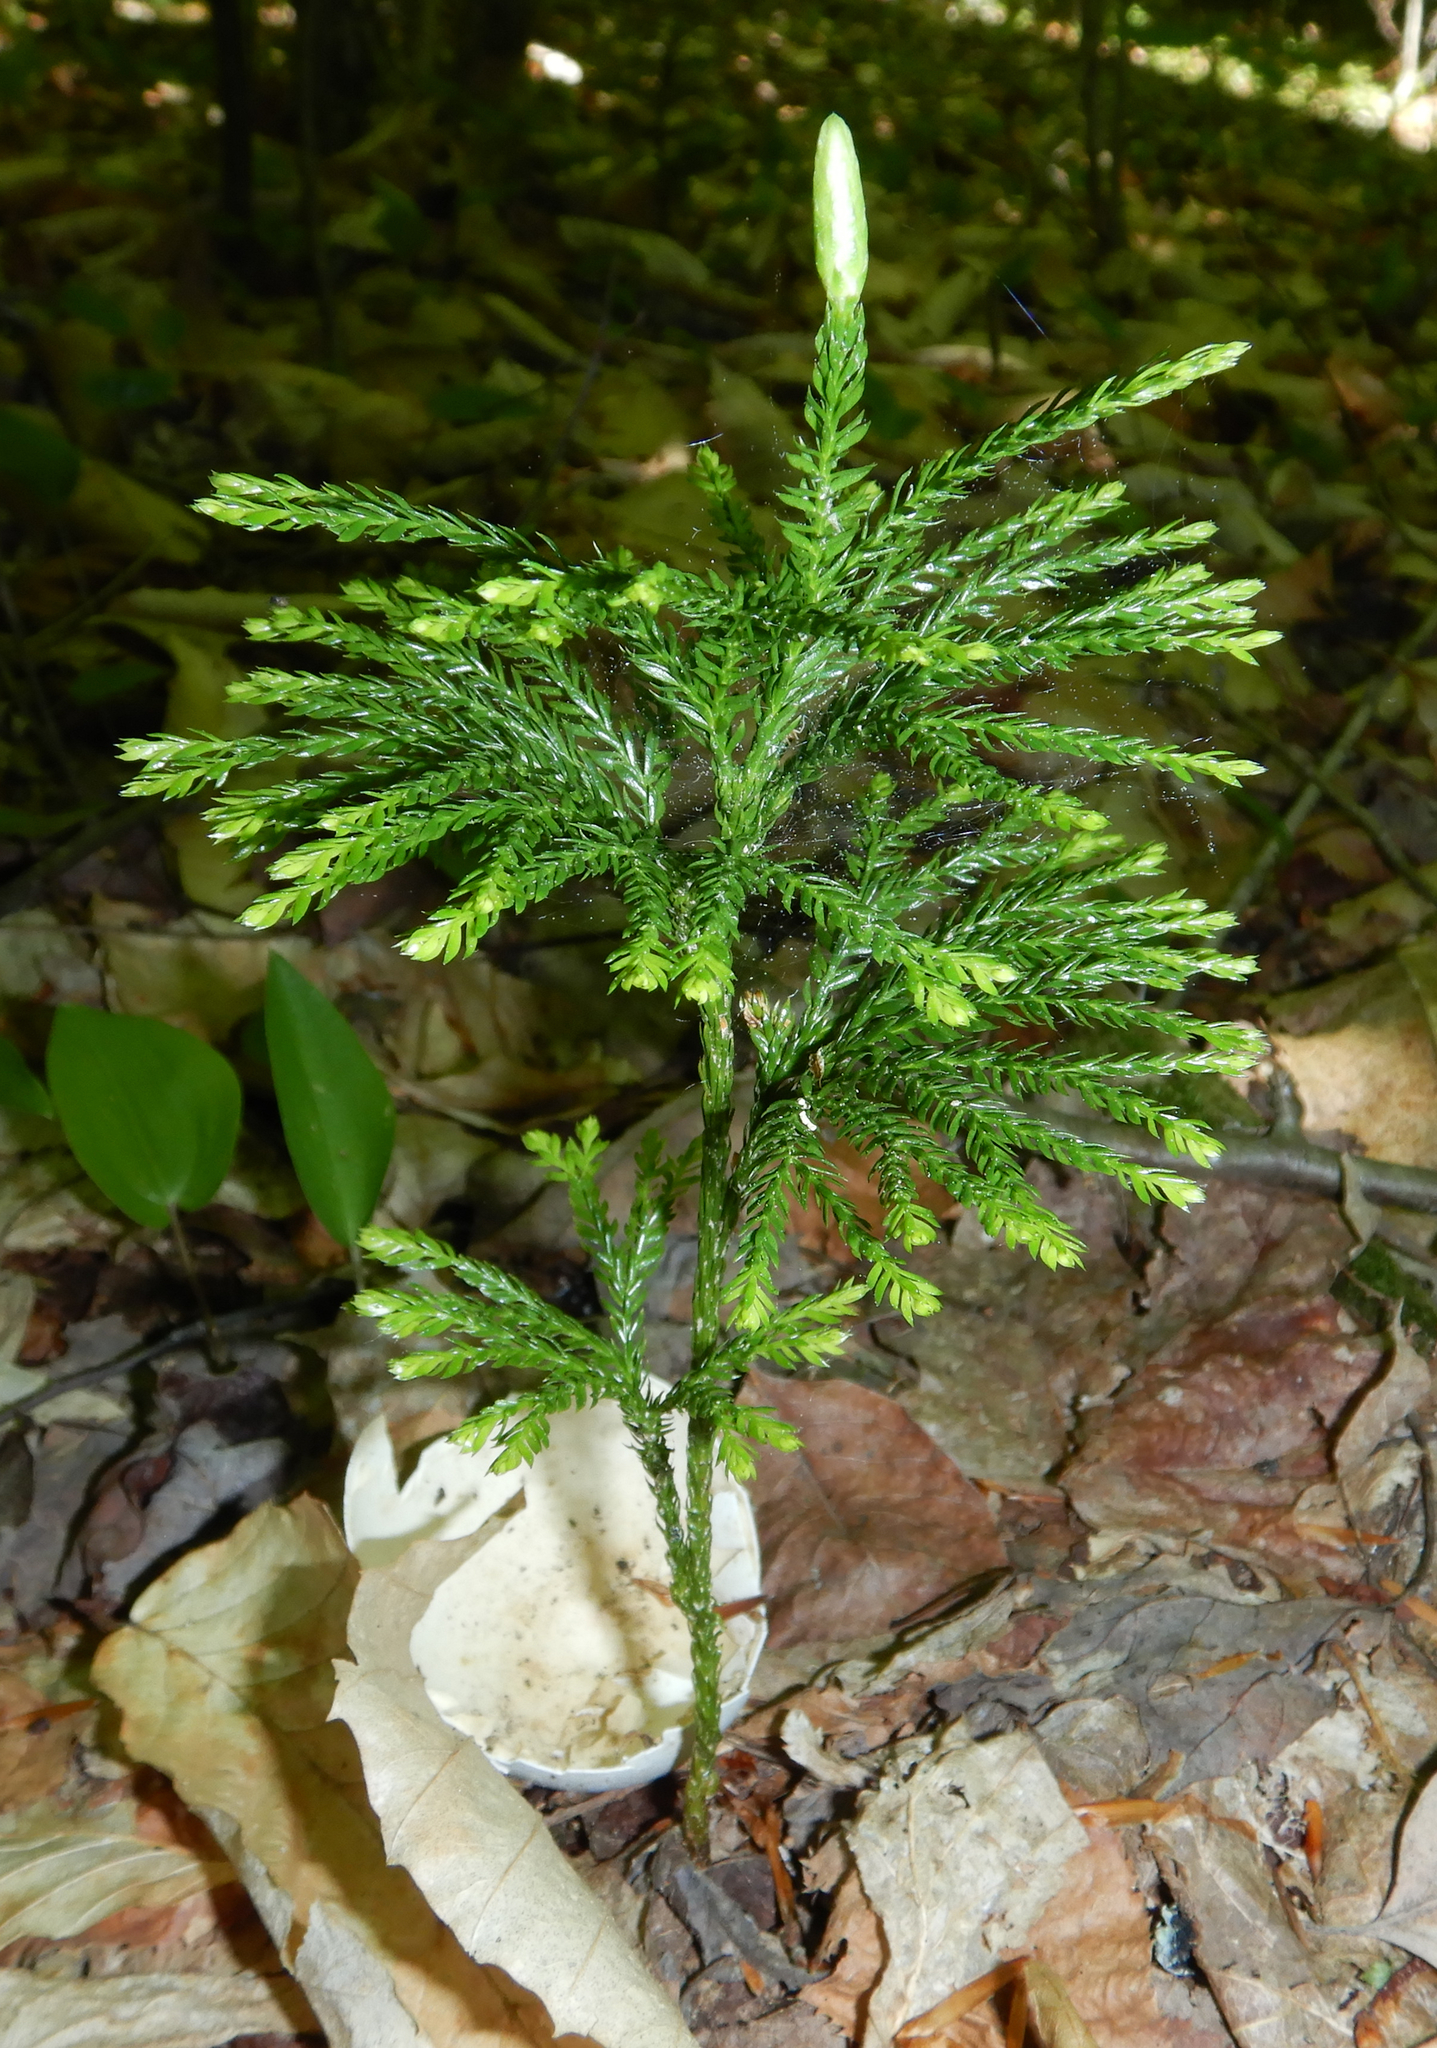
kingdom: Plantae
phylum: Tracheophyta
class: Lycopodiopsida
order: Lycopodiales
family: Lycopodiaceae
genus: Dendrolycopodium
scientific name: Dendrolycopodium obscurum
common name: Common ground-pine
